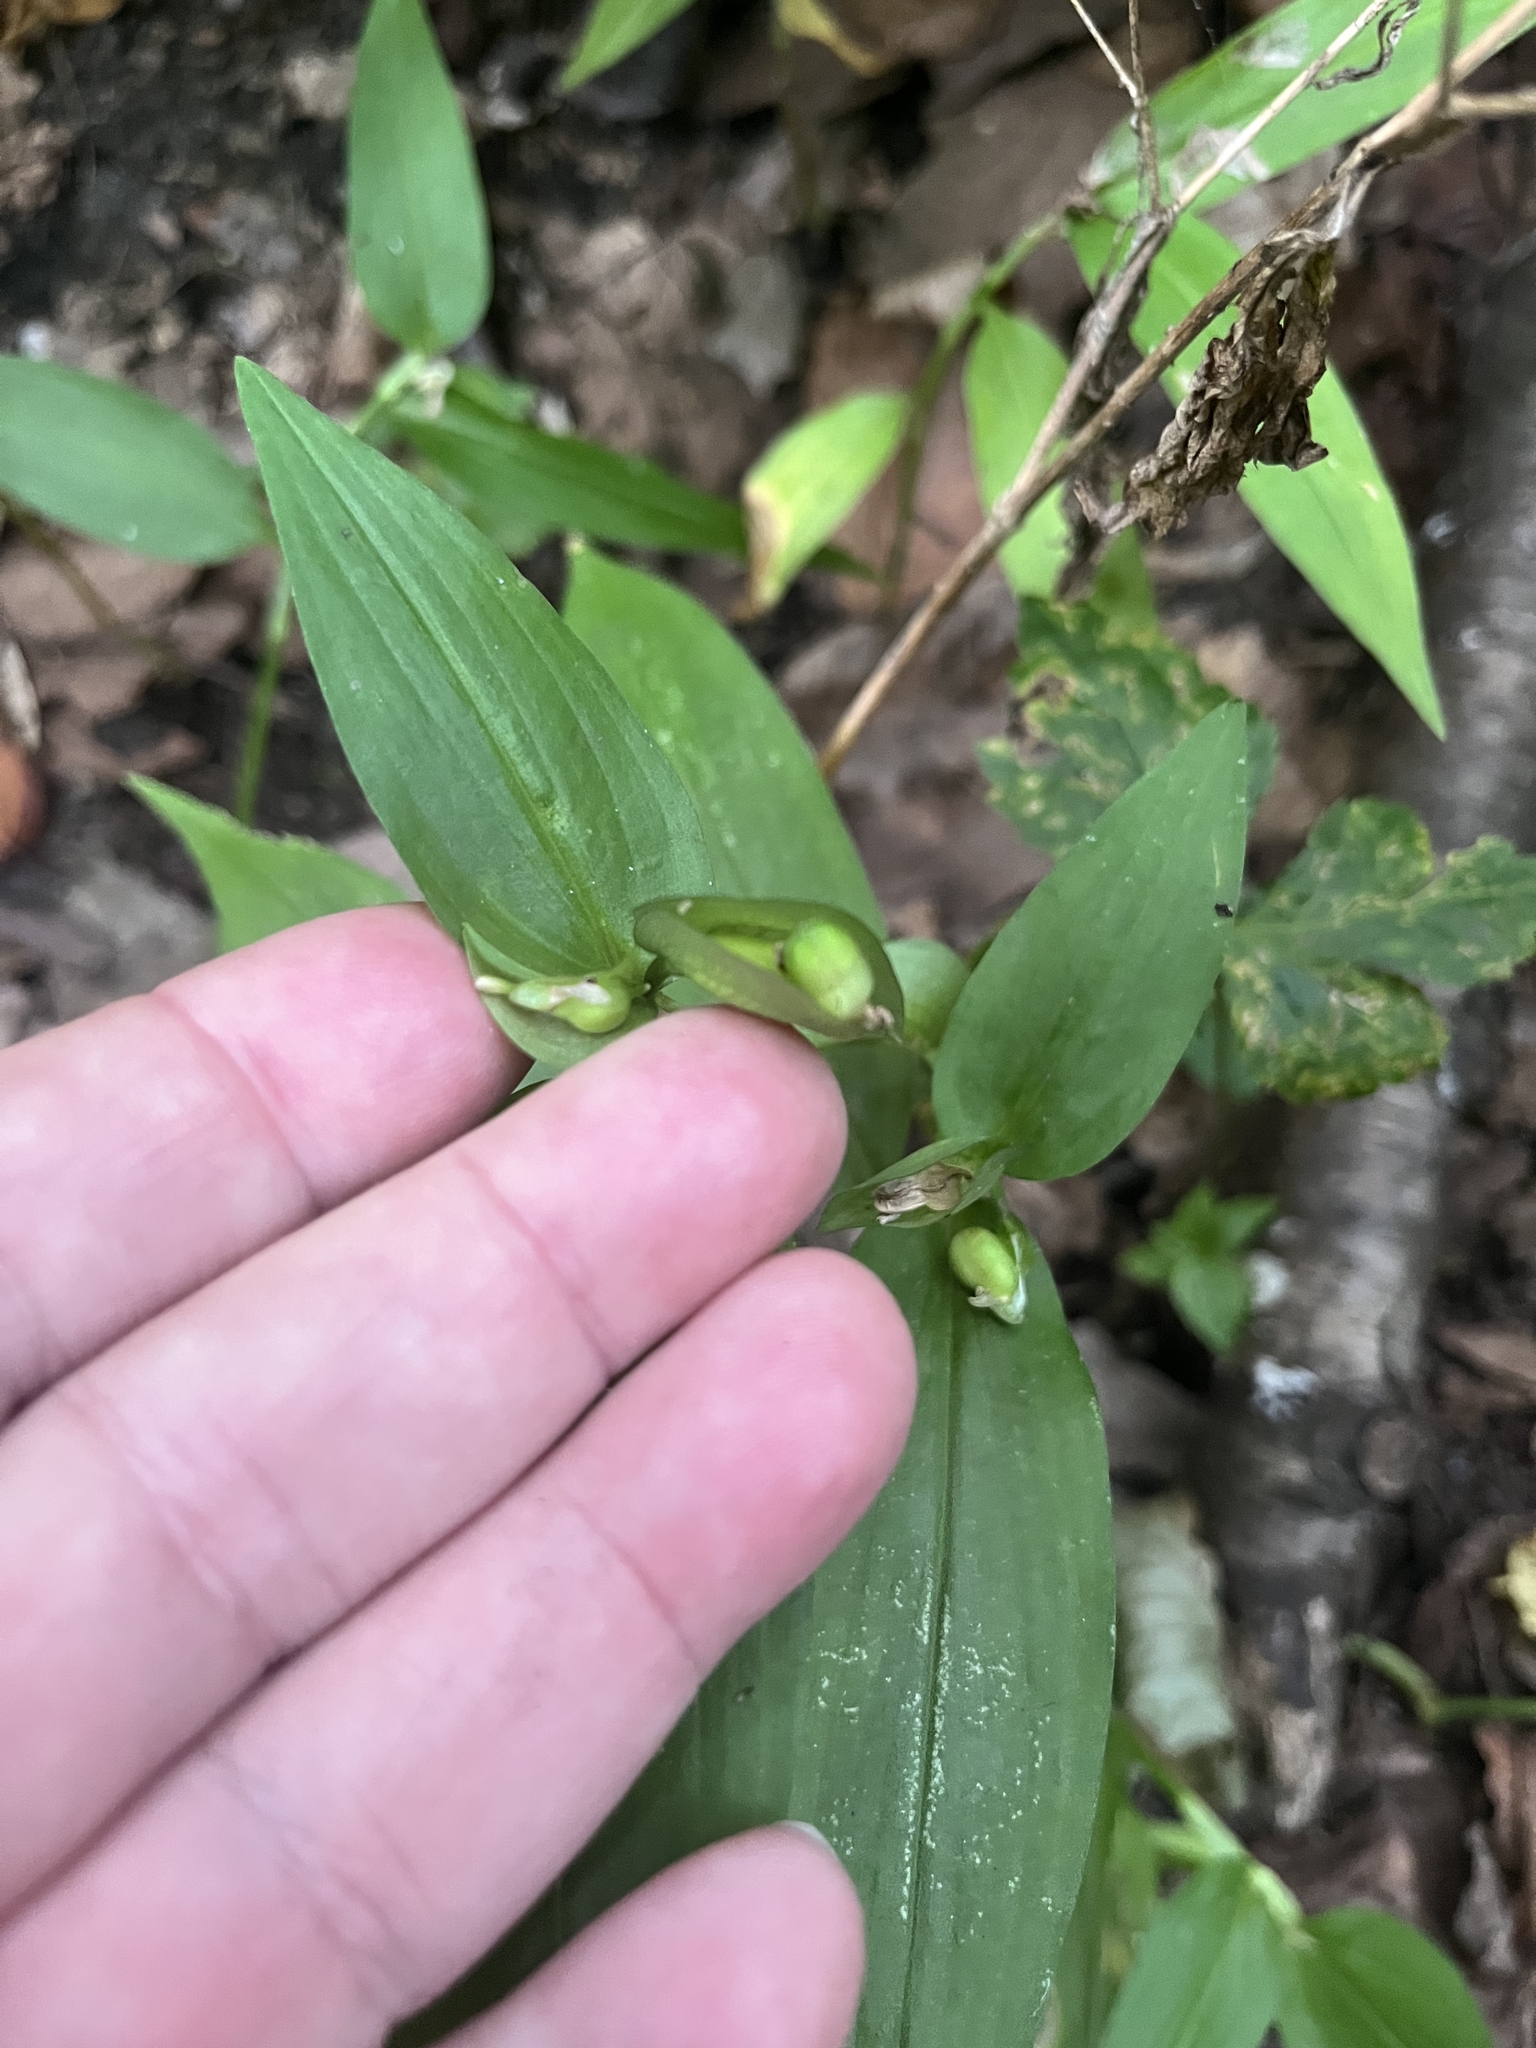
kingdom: Plantae
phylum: Tracheophyta
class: Liliopsida
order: Commelinales
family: Commelinaceae
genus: Commelina
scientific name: Commelina communis
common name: Asiatic dayflower
